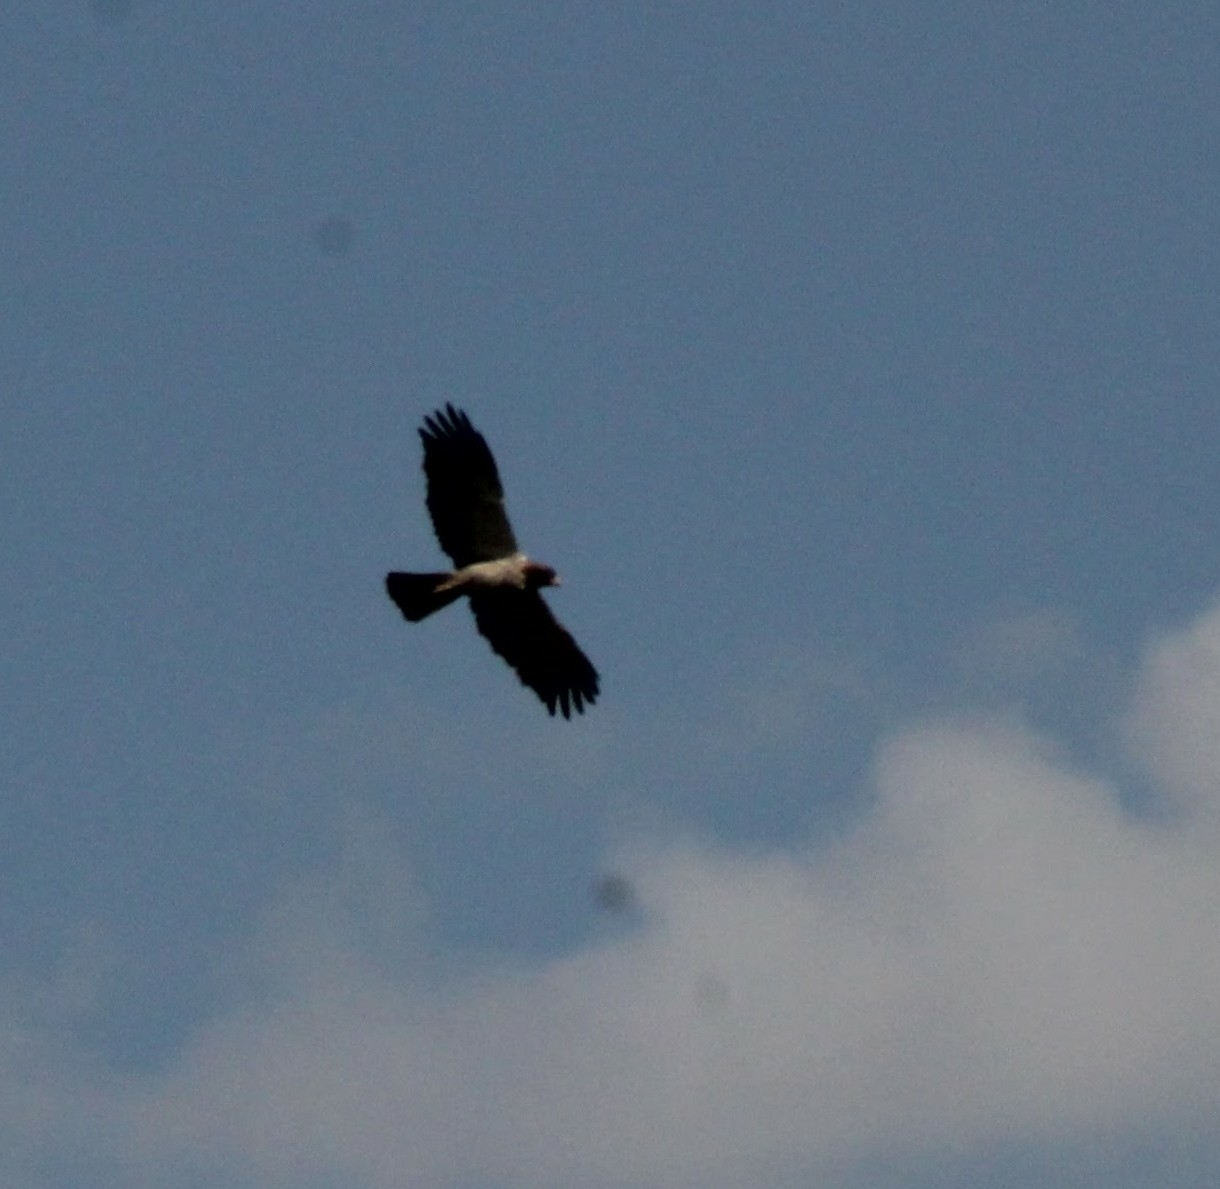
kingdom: Animalia
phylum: Chordata
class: Aves
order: Accipitriformes
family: Accipitridae
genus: Hieraaetus
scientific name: Hieraaetus pennatus
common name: Booted eagle
